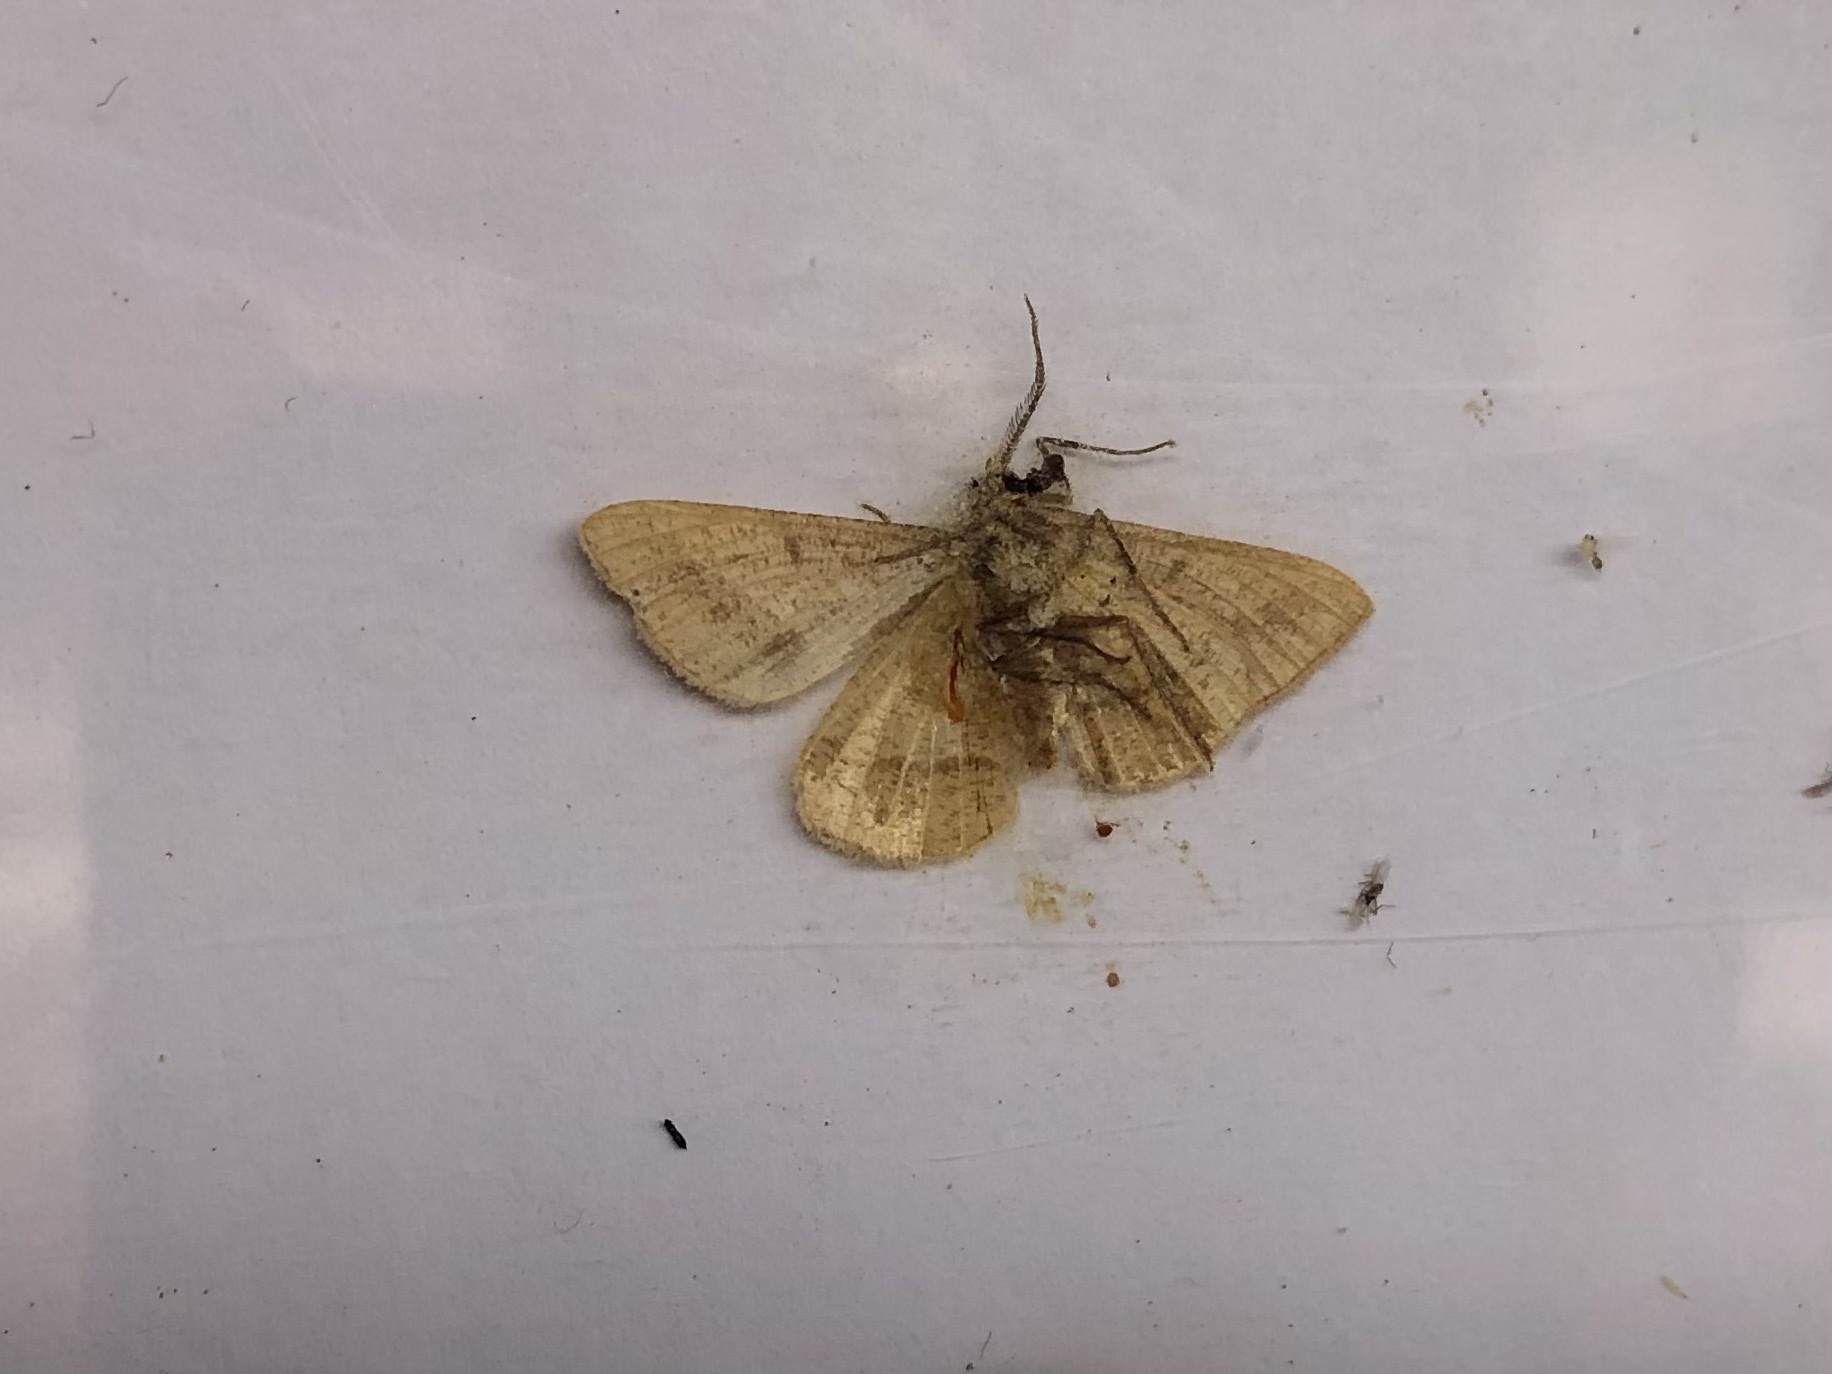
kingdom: Animalia
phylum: Arthropoda
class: Insecta
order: Lepidoptera
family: Geometridae
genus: Tephrina
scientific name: Tephrina arenacearia
